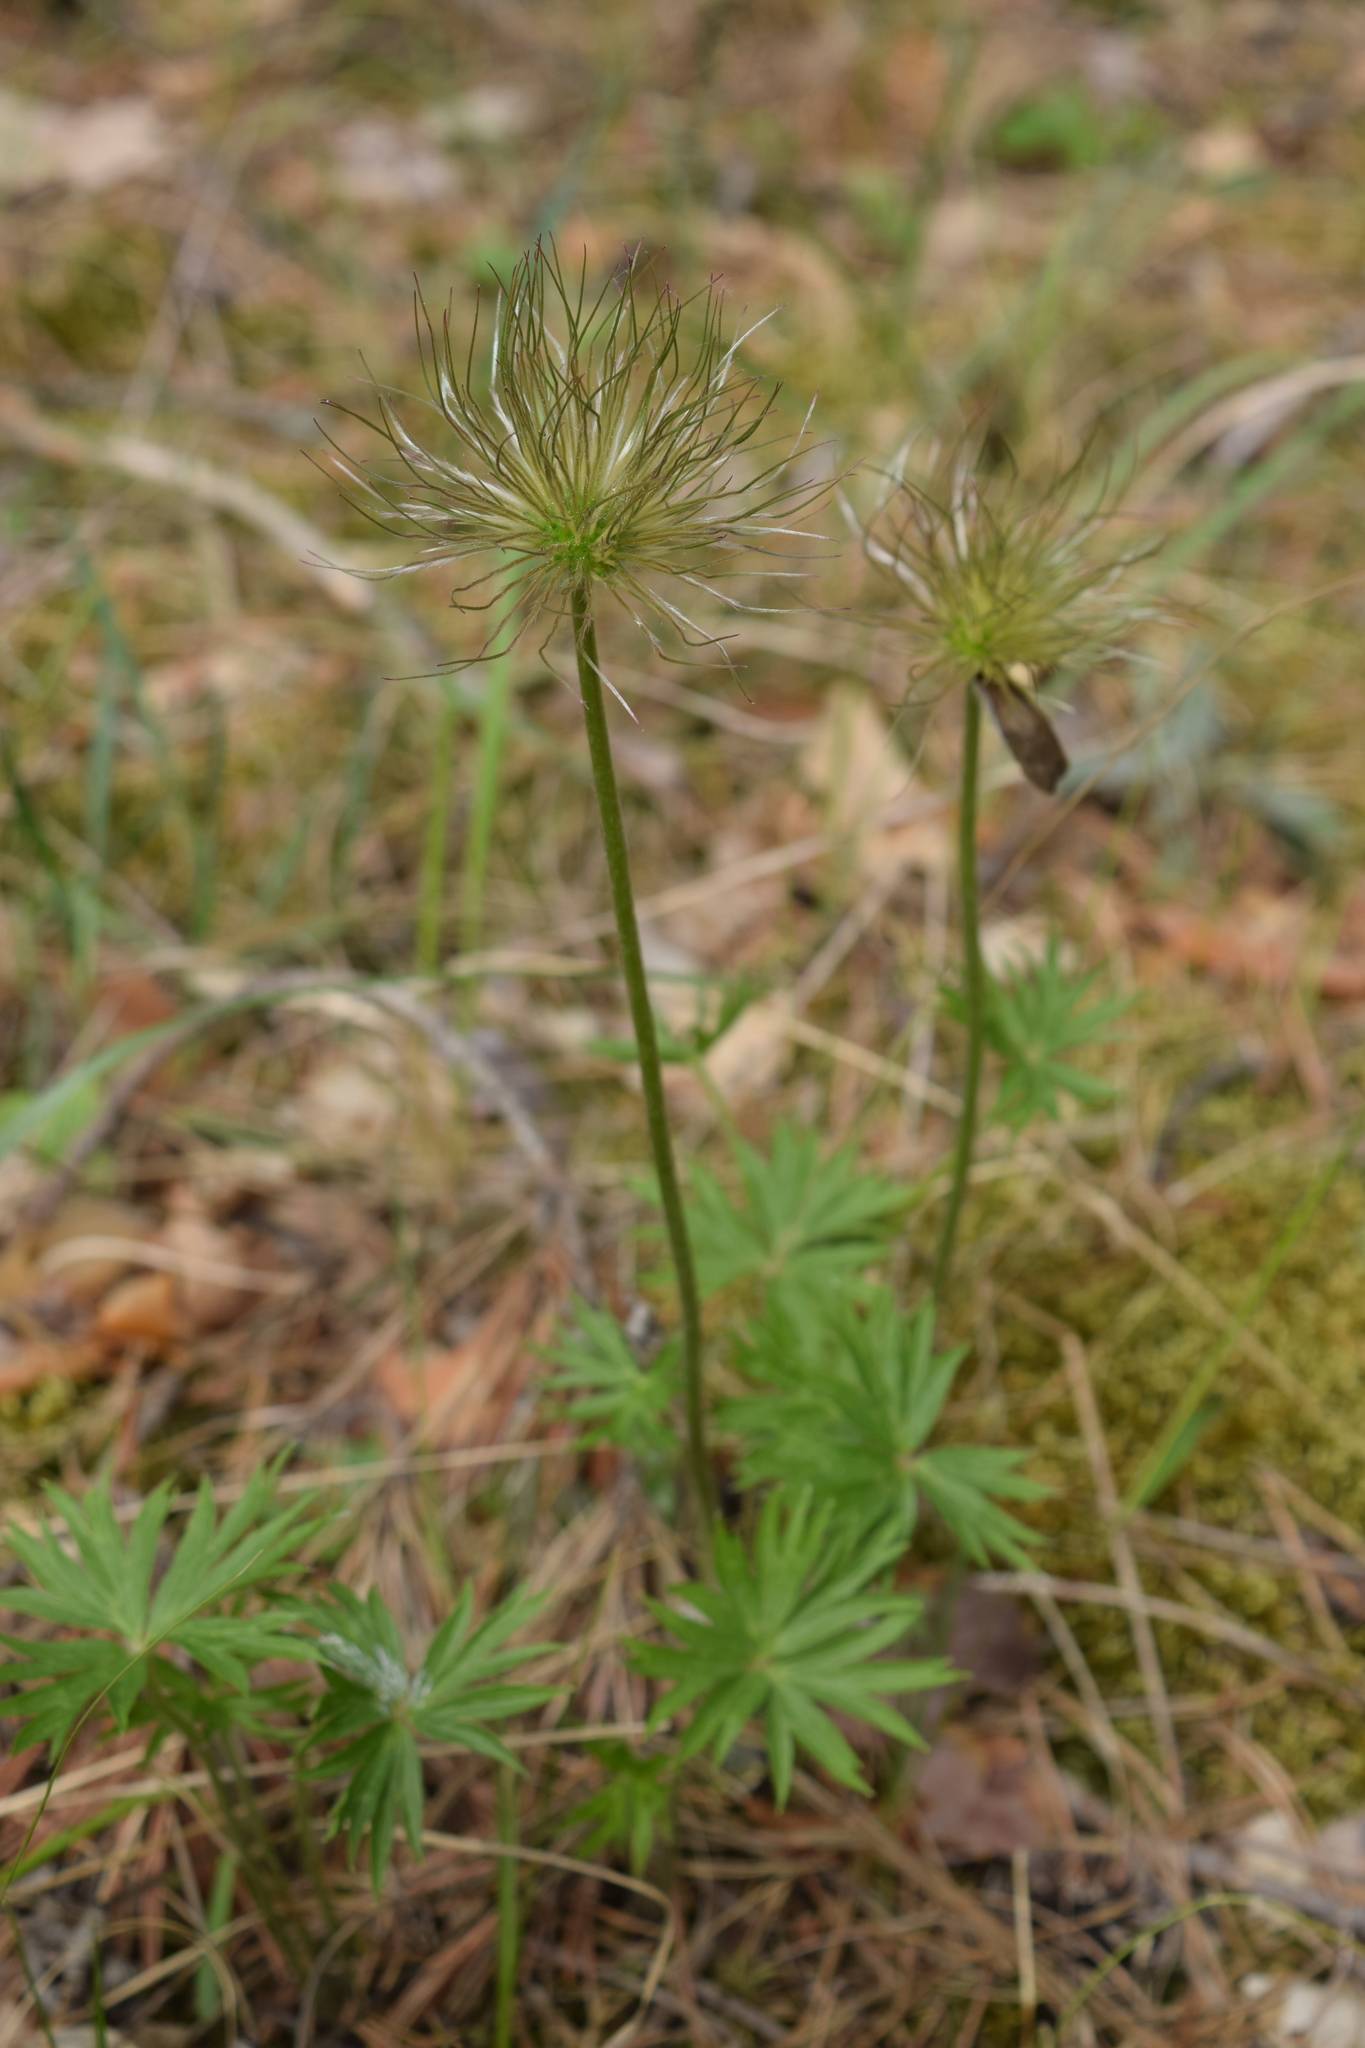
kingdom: Plantae
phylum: Tracheophyta
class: Magnoliopsida
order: Ranunculales
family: Ranunculaceae
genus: Pulsatilla
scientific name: Pulsatilla patens
